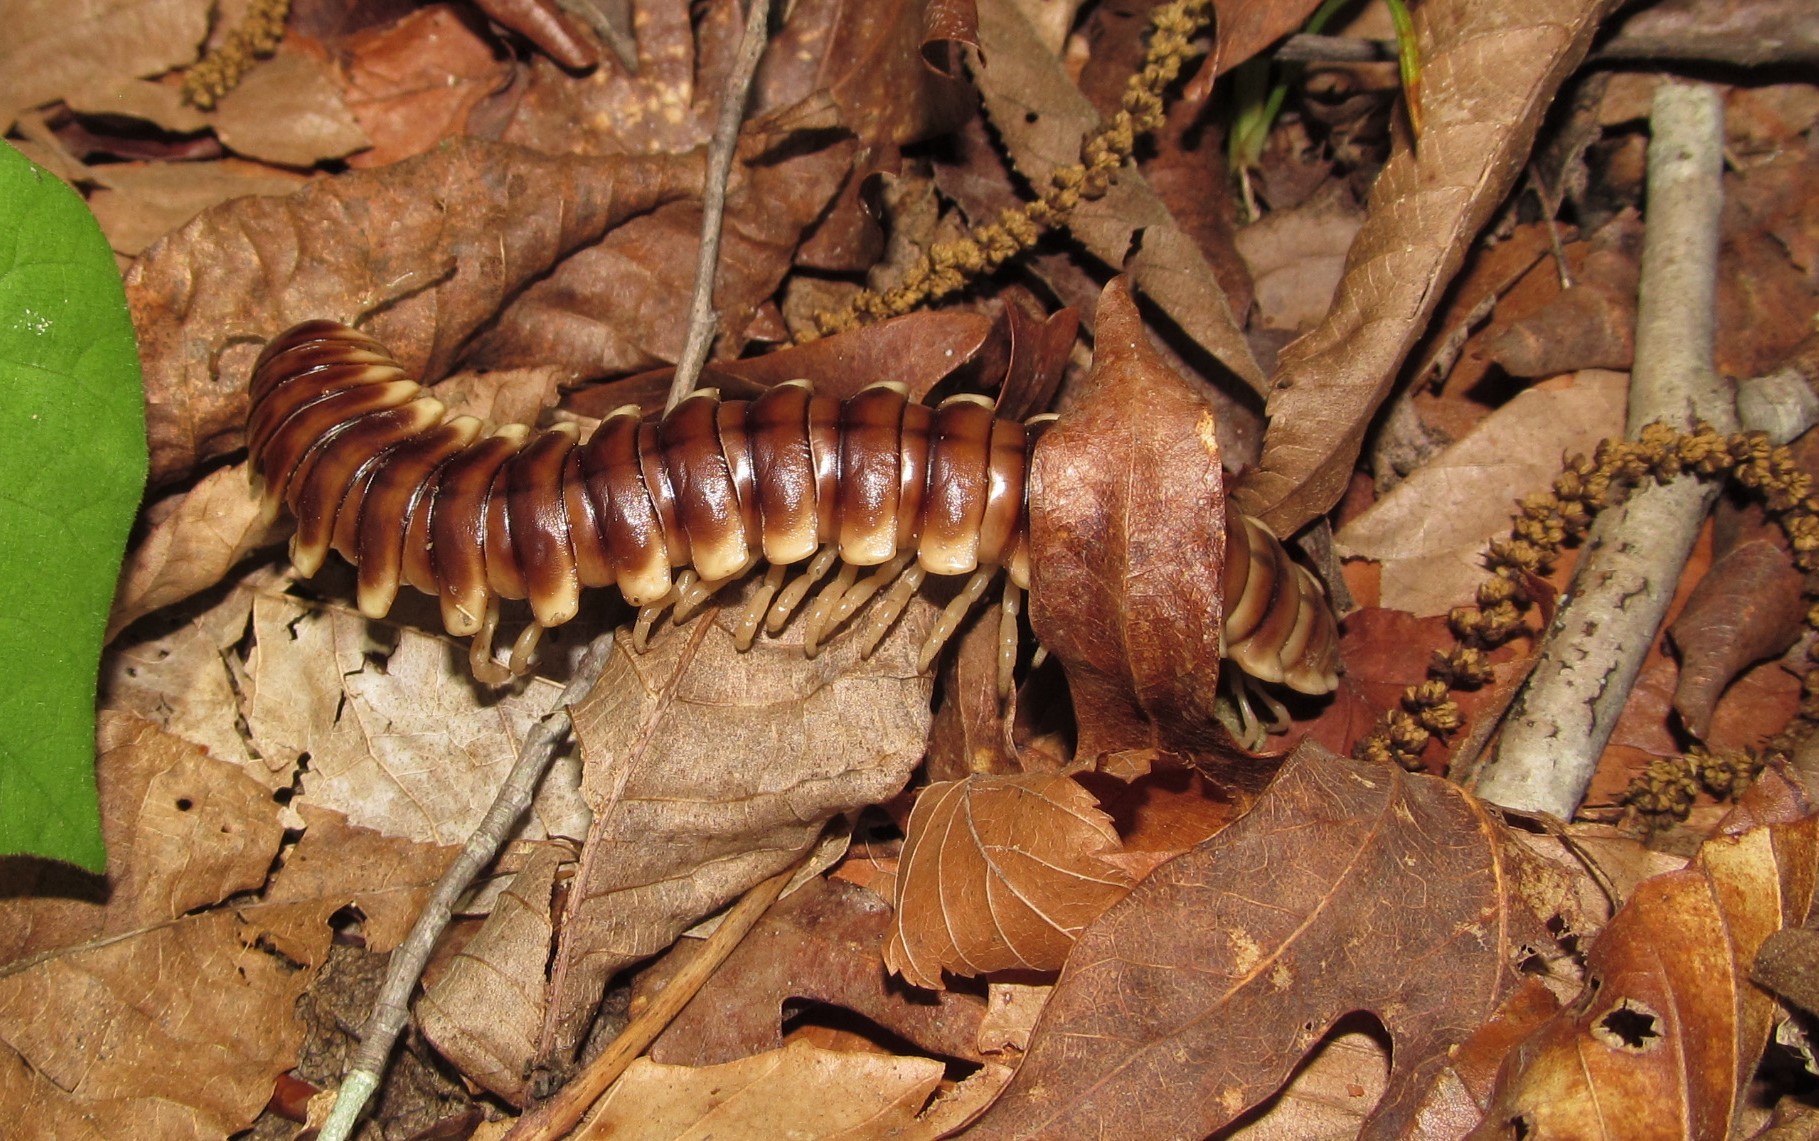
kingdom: Animalia
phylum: Arthropoda
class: Diplopoda
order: Polydesmida
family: Xystodesmidae
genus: Pachydesmus
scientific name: Pachydesmus duplex
